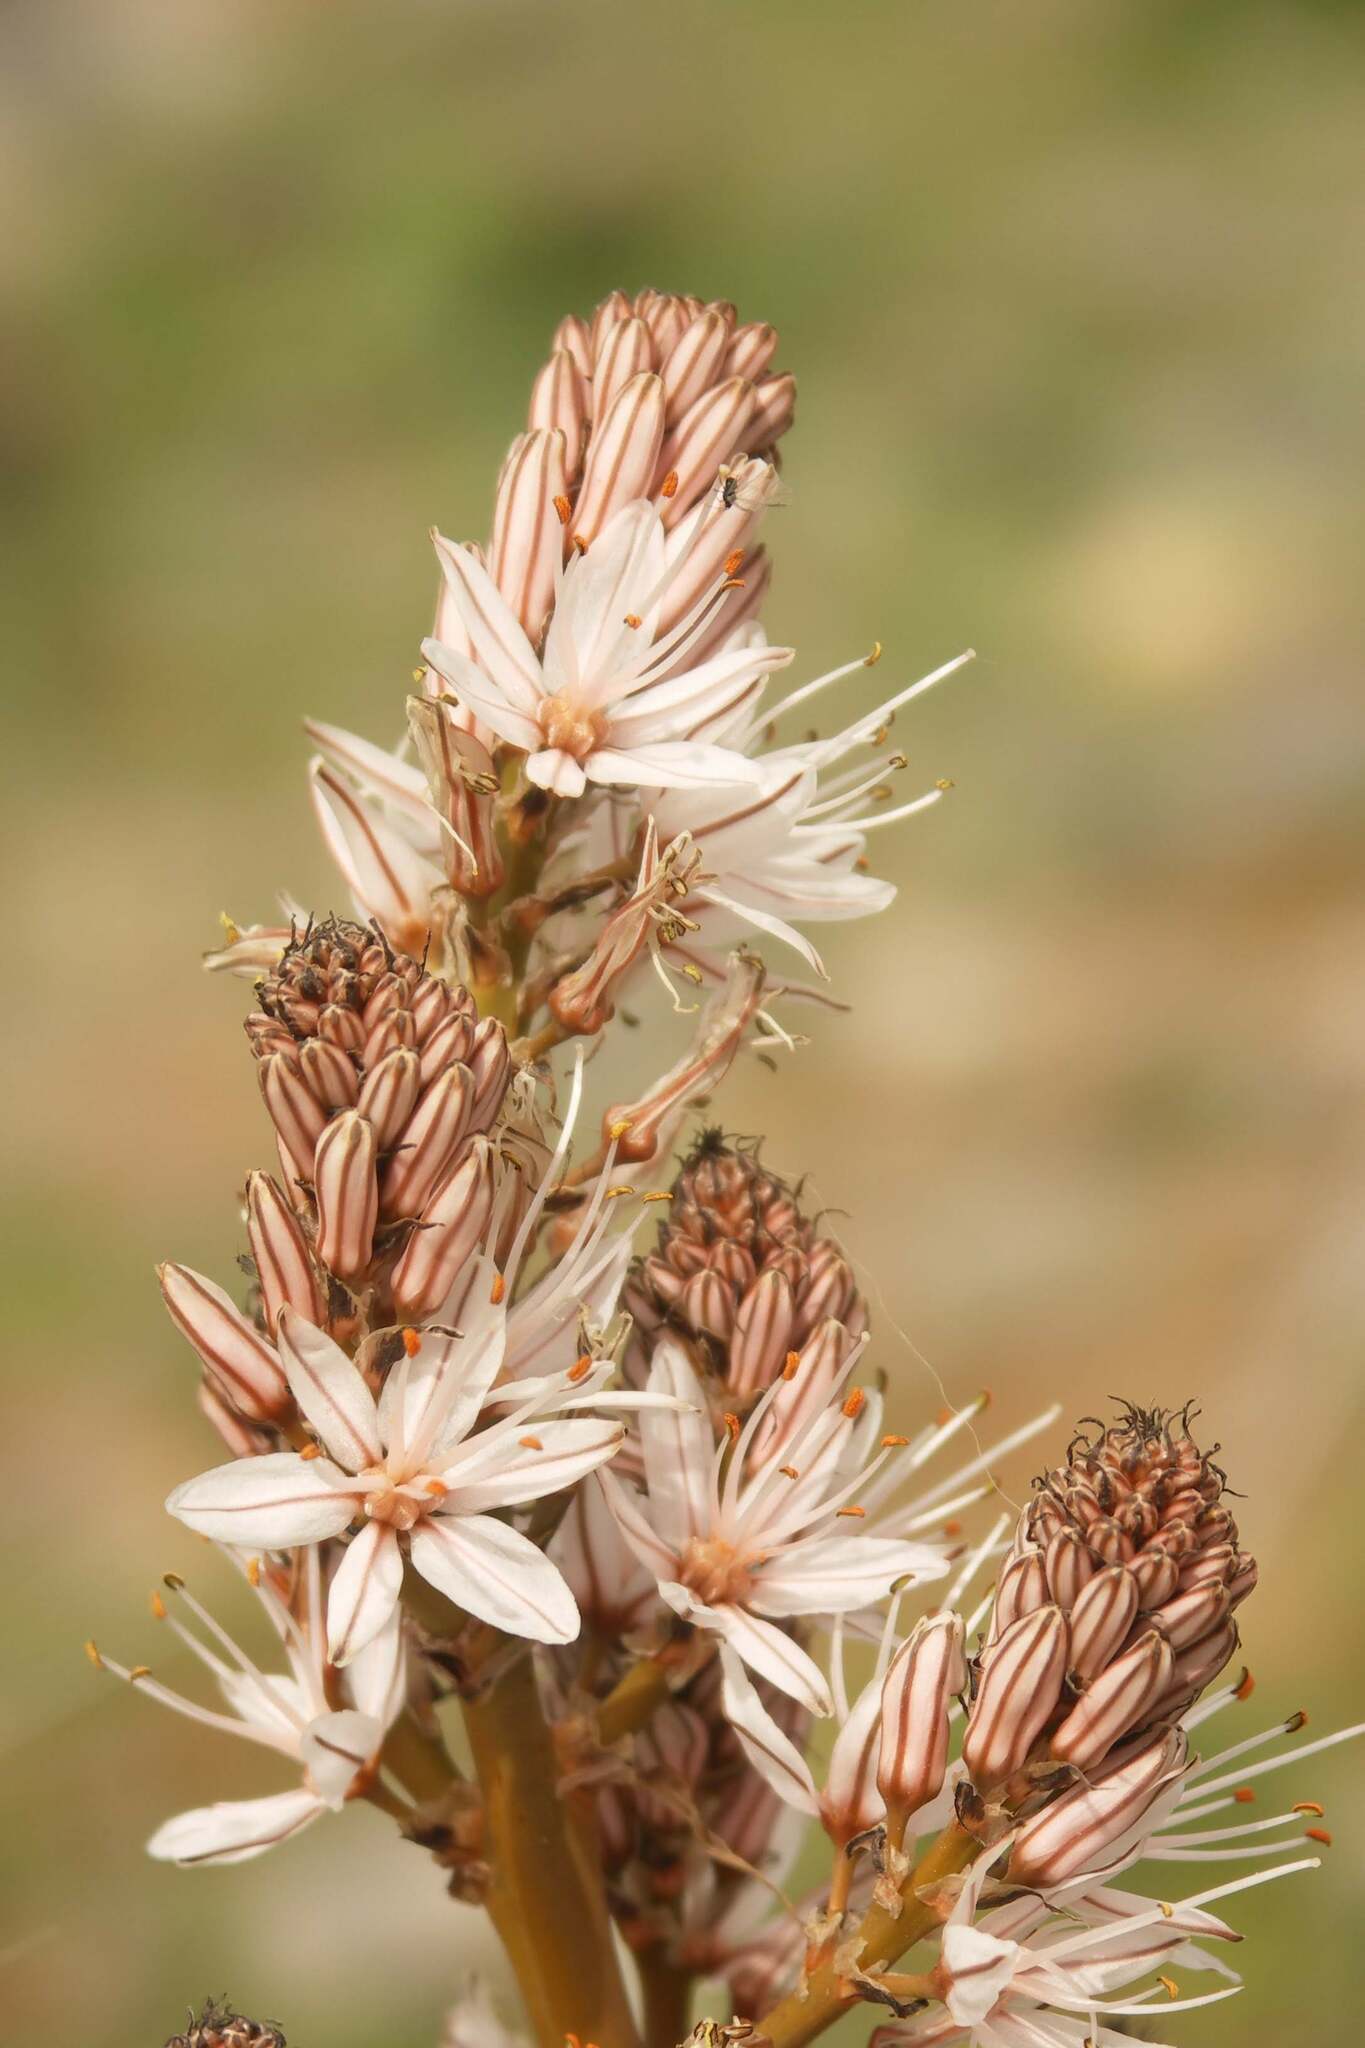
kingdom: Plantae
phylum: Tracheophyta
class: Liliopsida
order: Asparagales
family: Asphodelaceae
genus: Asphodelus
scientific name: Asphodelus ramosus
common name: Silverrod
